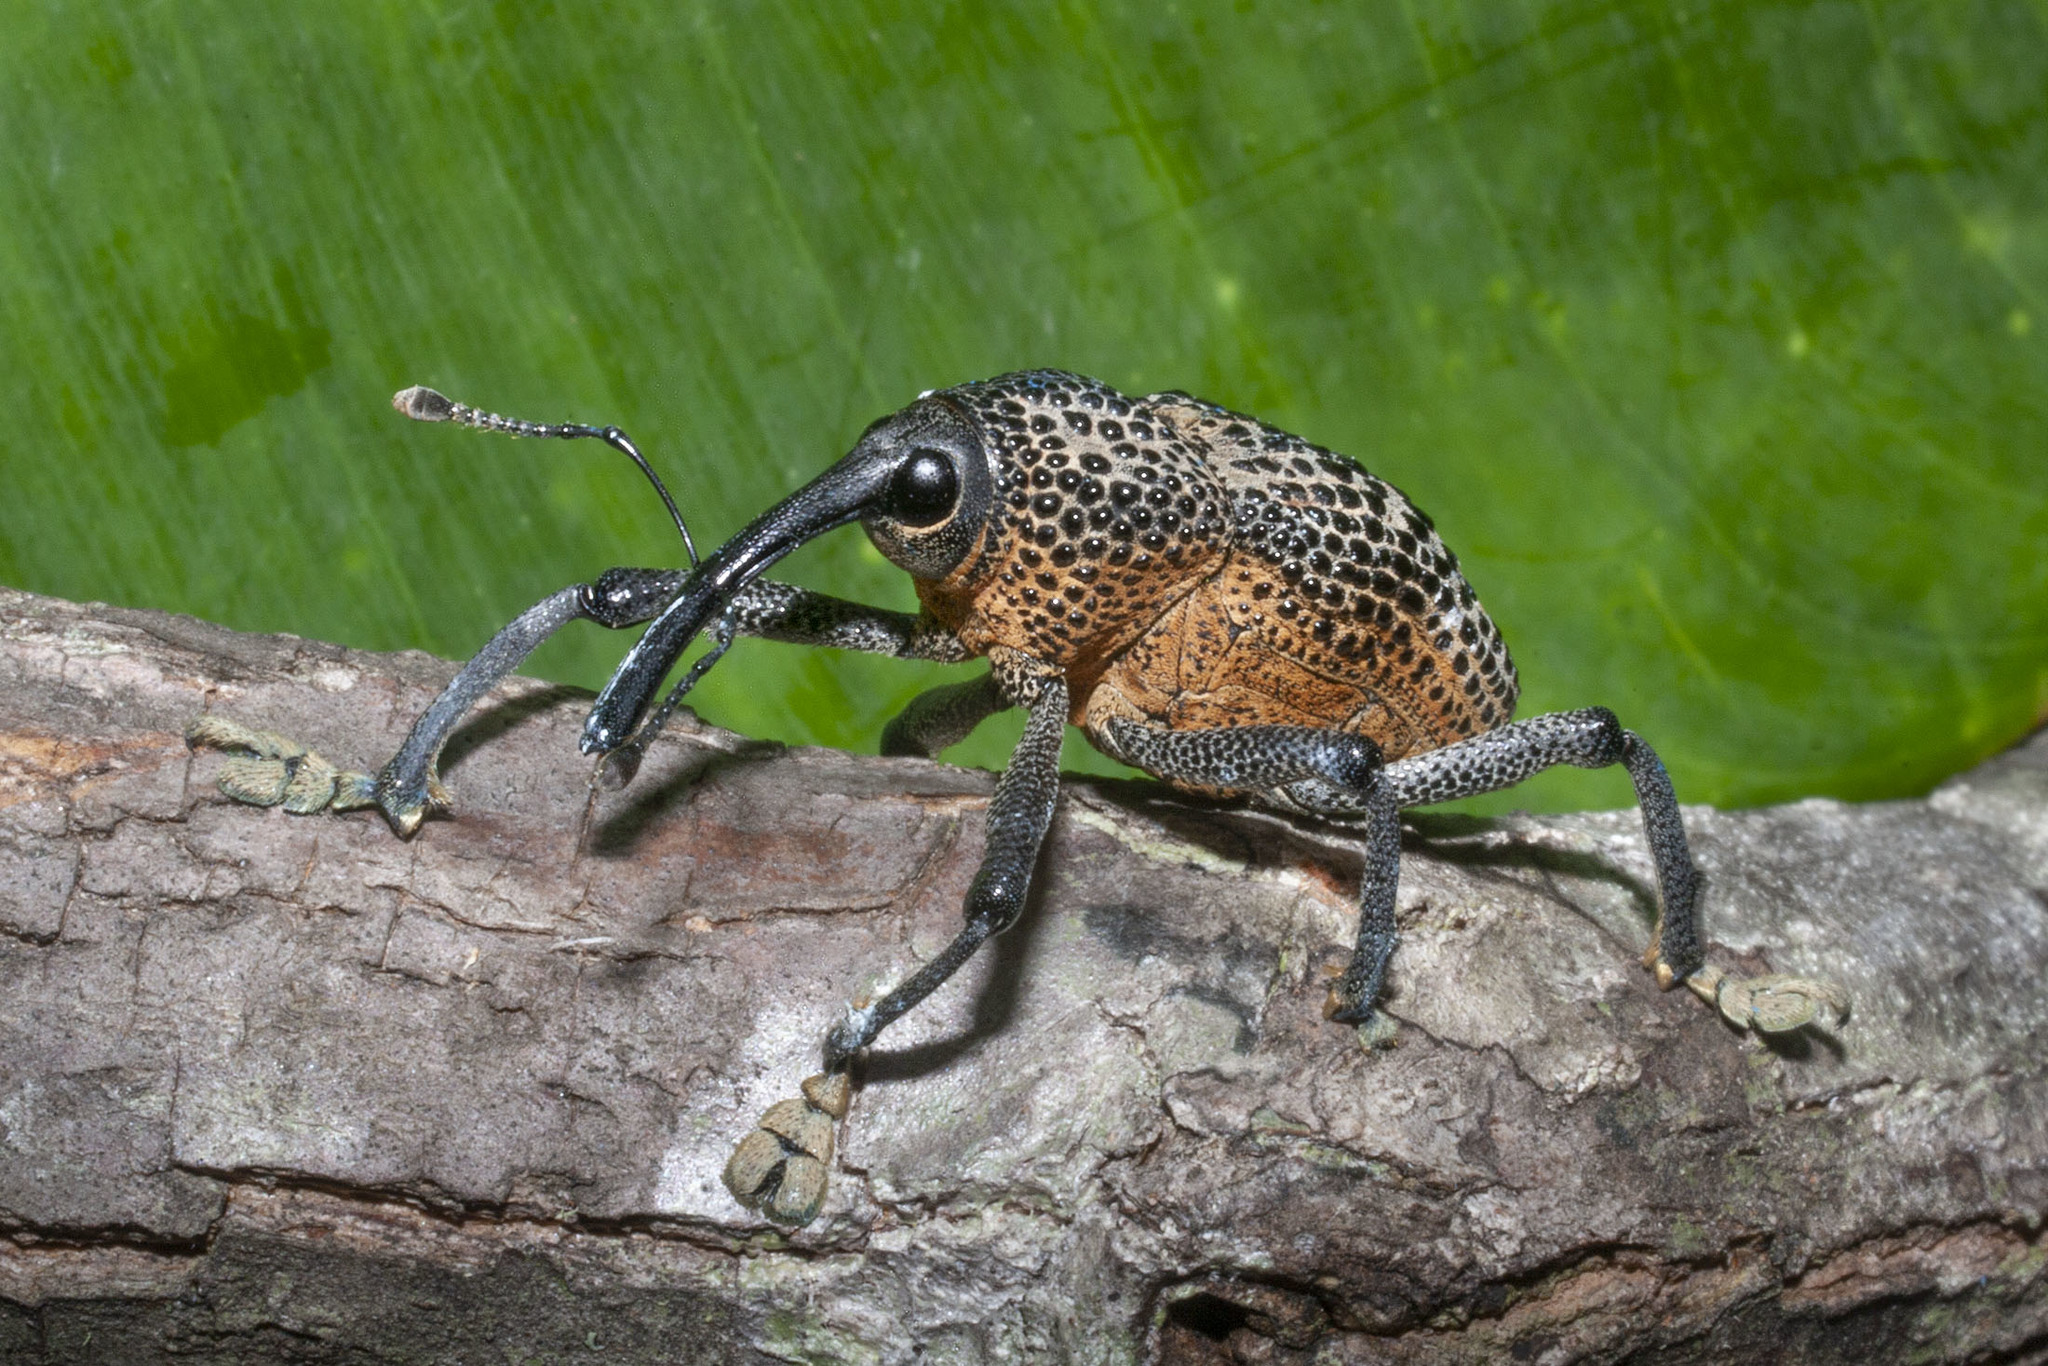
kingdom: Animalia
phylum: Arthropoda
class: Insecta
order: Coleoptera
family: Curculionidae
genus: Cholus
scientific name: Cholus miliaris
